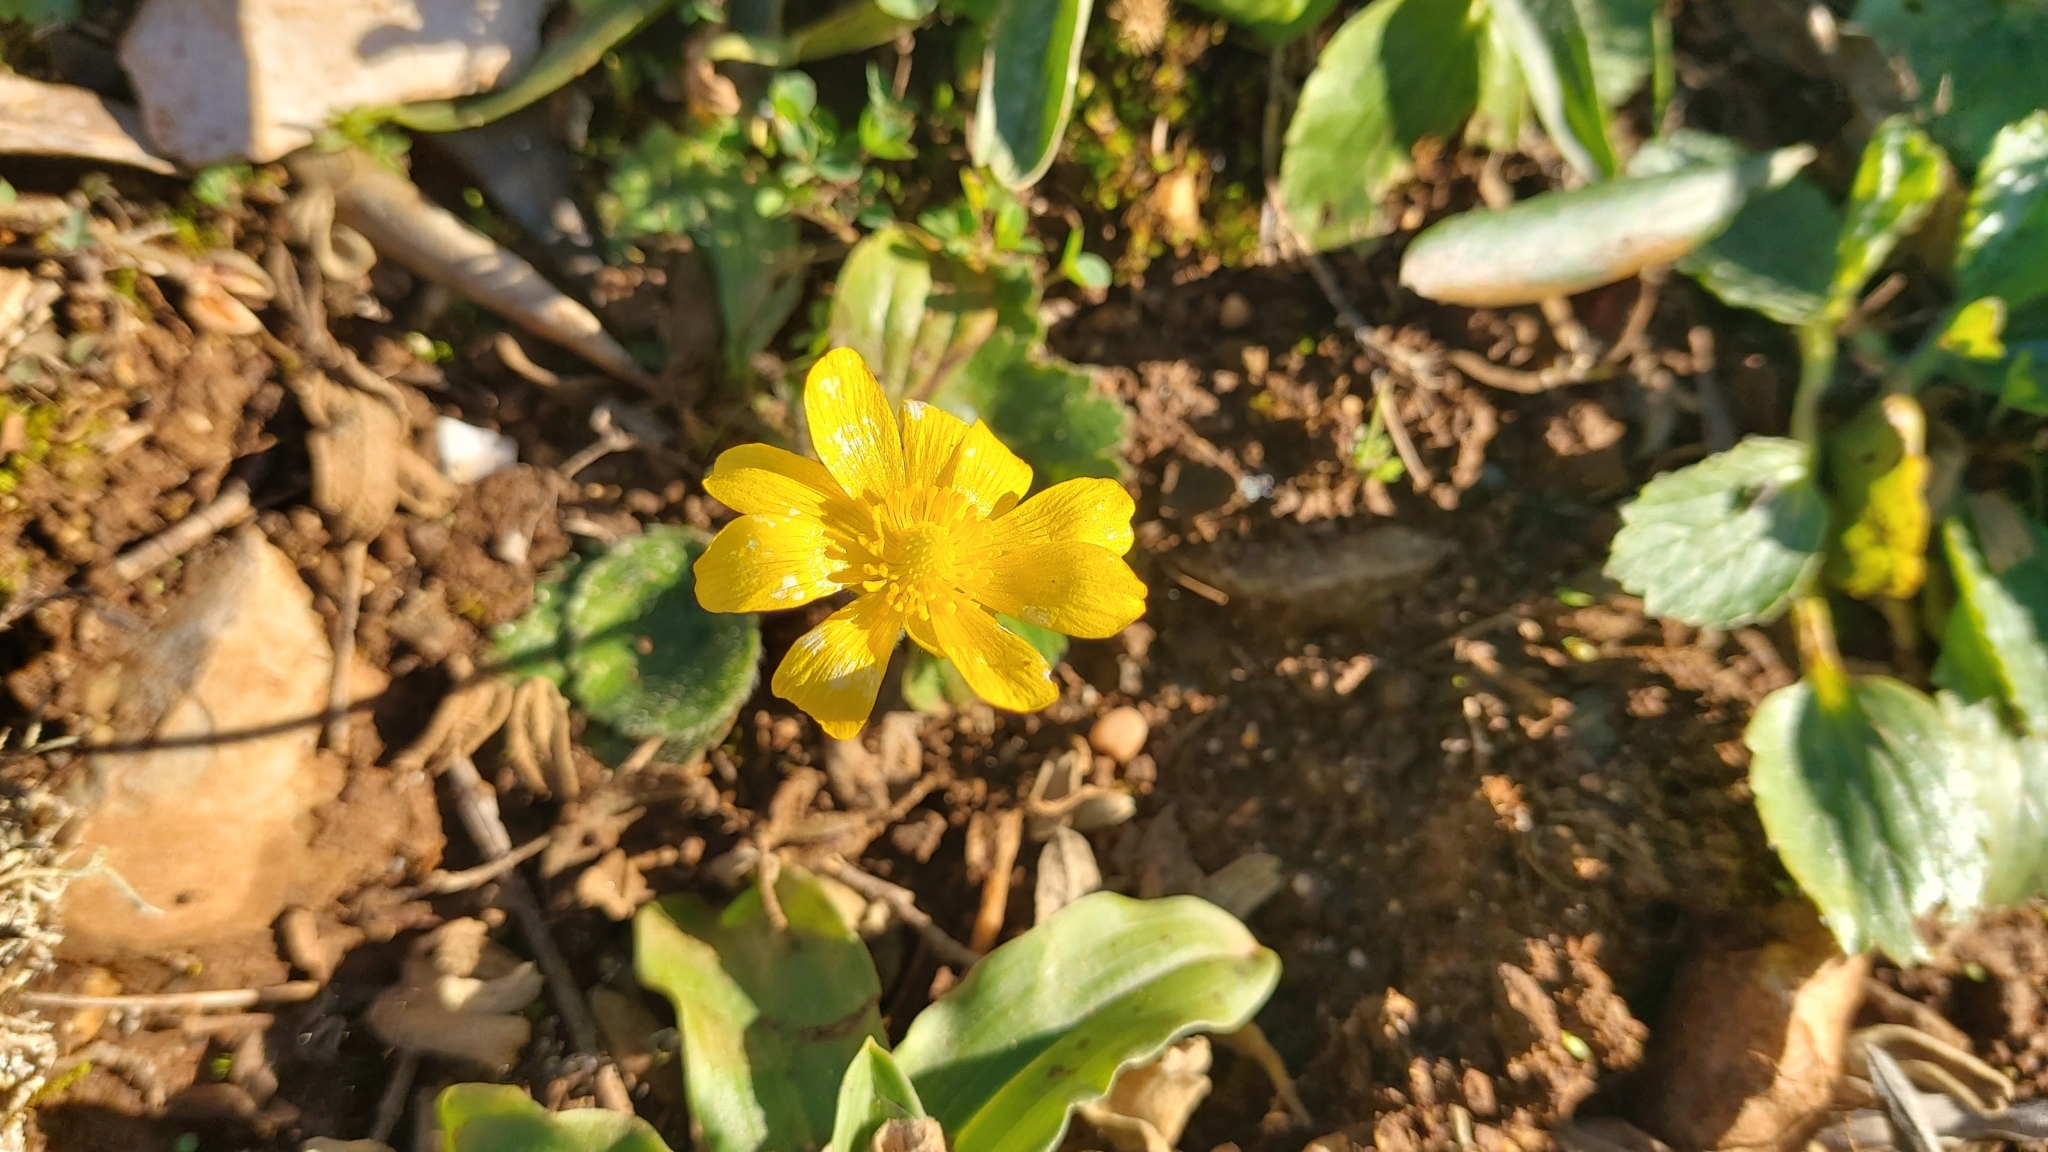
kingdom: Plantae
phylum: Tracheophyta
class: Magnoliopsida
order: Ranunculales
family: Ranunculaceae
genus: Ranunculus
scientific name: Ranunculus bullatus
